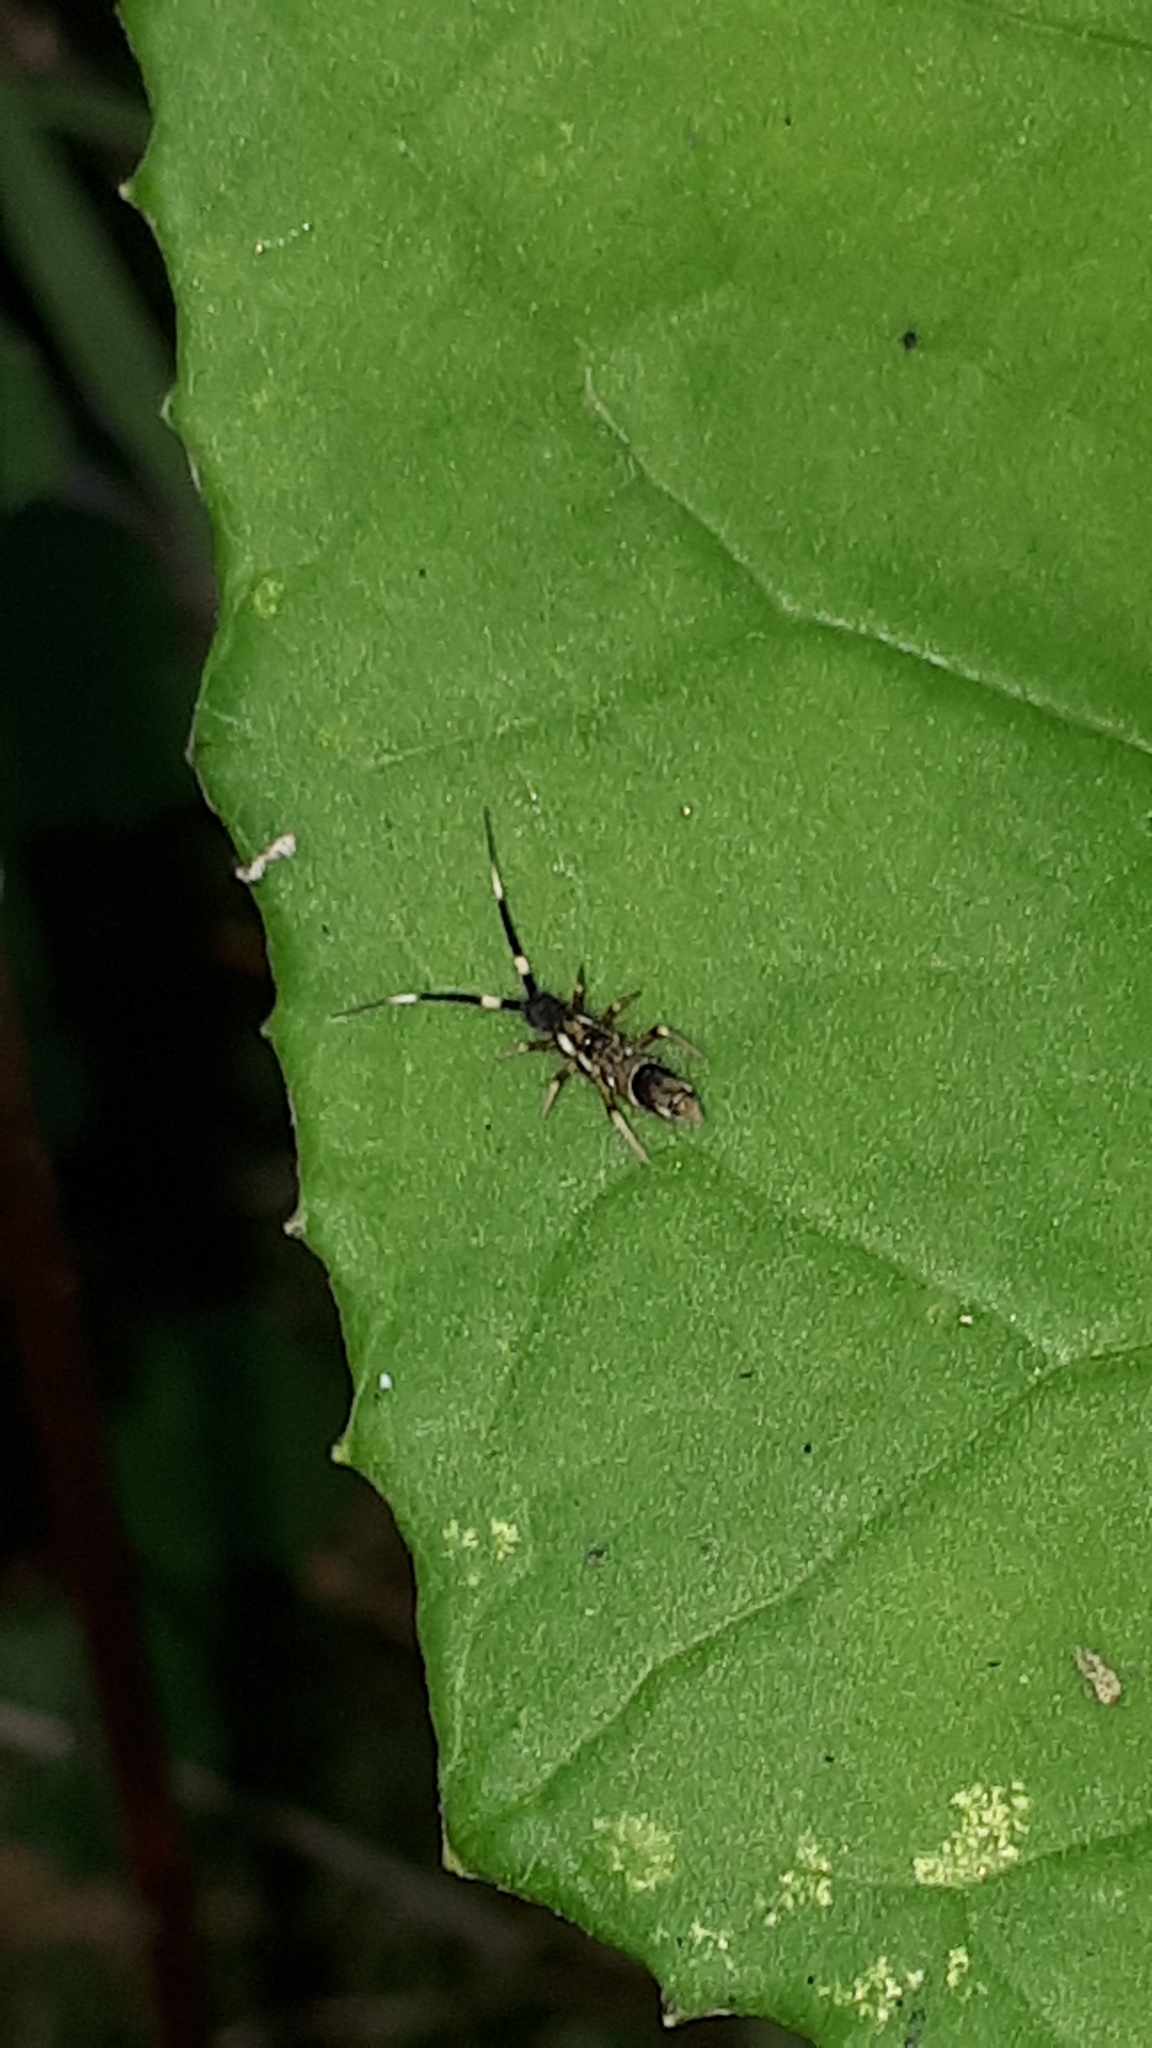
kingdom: Animalia
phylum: Arthropoda
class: Collembola
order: Entomobryomorpha
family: Entomobryidae
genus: Entomobrya
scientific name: Entomobrya nivalis
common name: Cosmopolitan springtail
